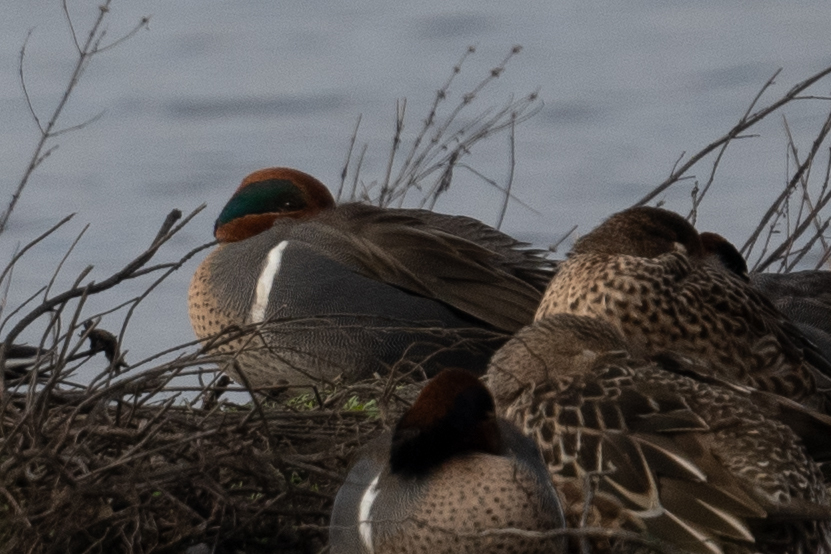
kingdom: Animalia
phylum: Chordata
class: Aves
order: Anseriformes
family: Anatidae
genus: Anas
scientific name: Anas crecca
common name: Eurasian teal
